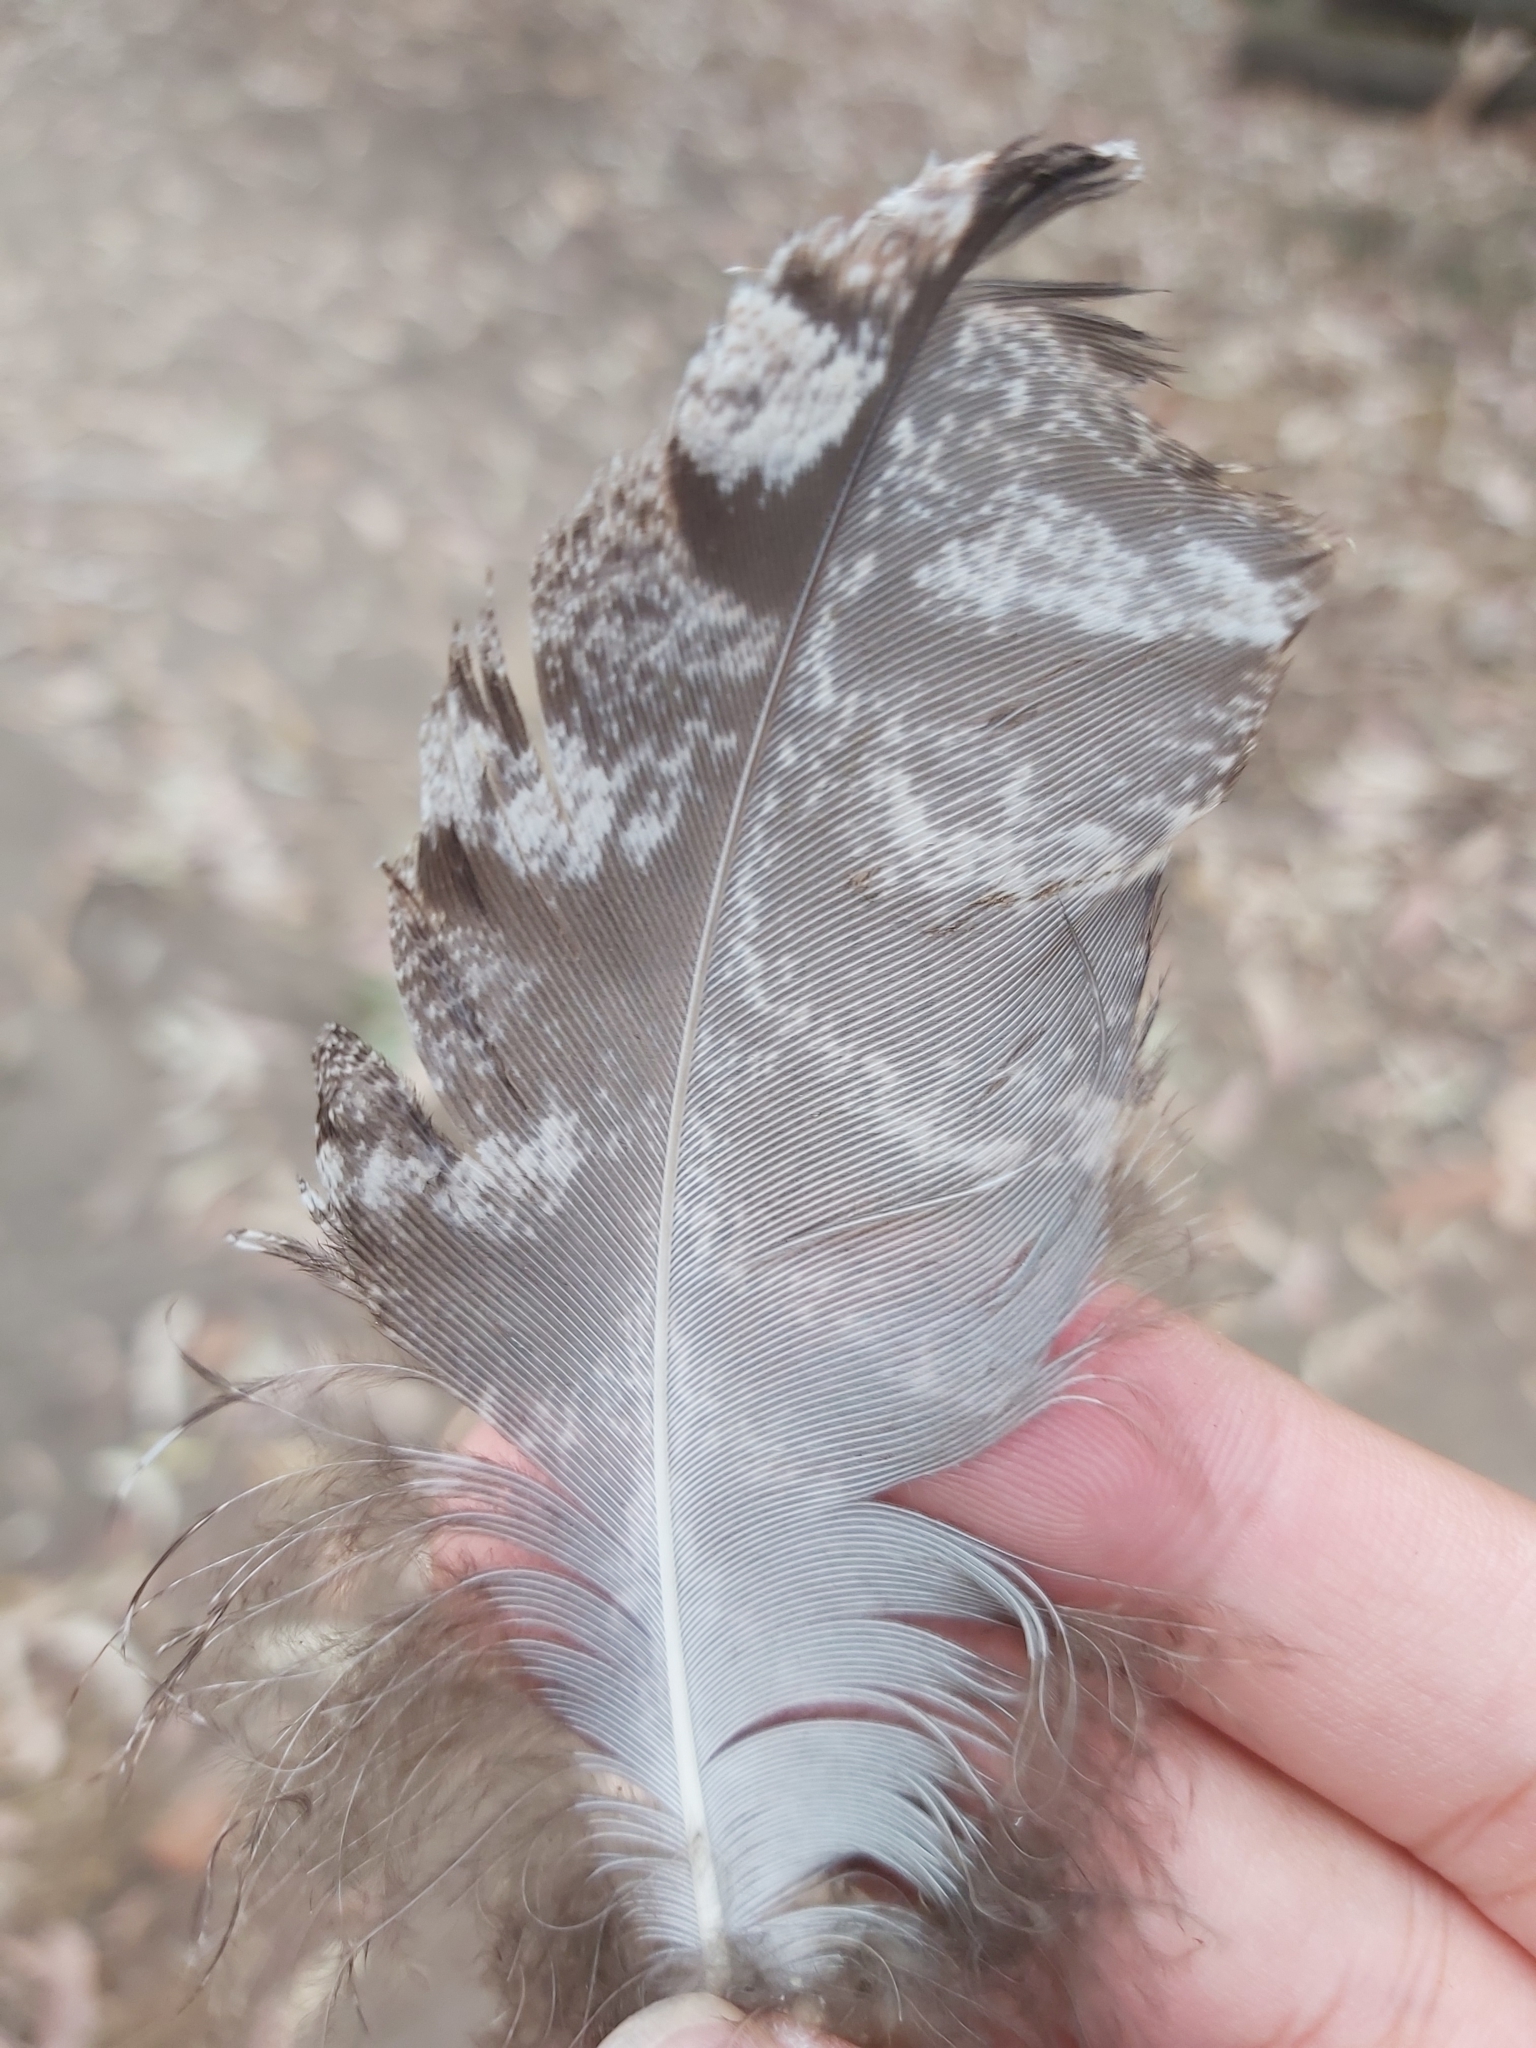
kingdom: Animalia
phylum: Chordata
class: Aves
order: Caprimulgiformes
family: Podargidae
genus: Podargus
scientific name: Podargus strigoides
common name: Tawny frogmouth
